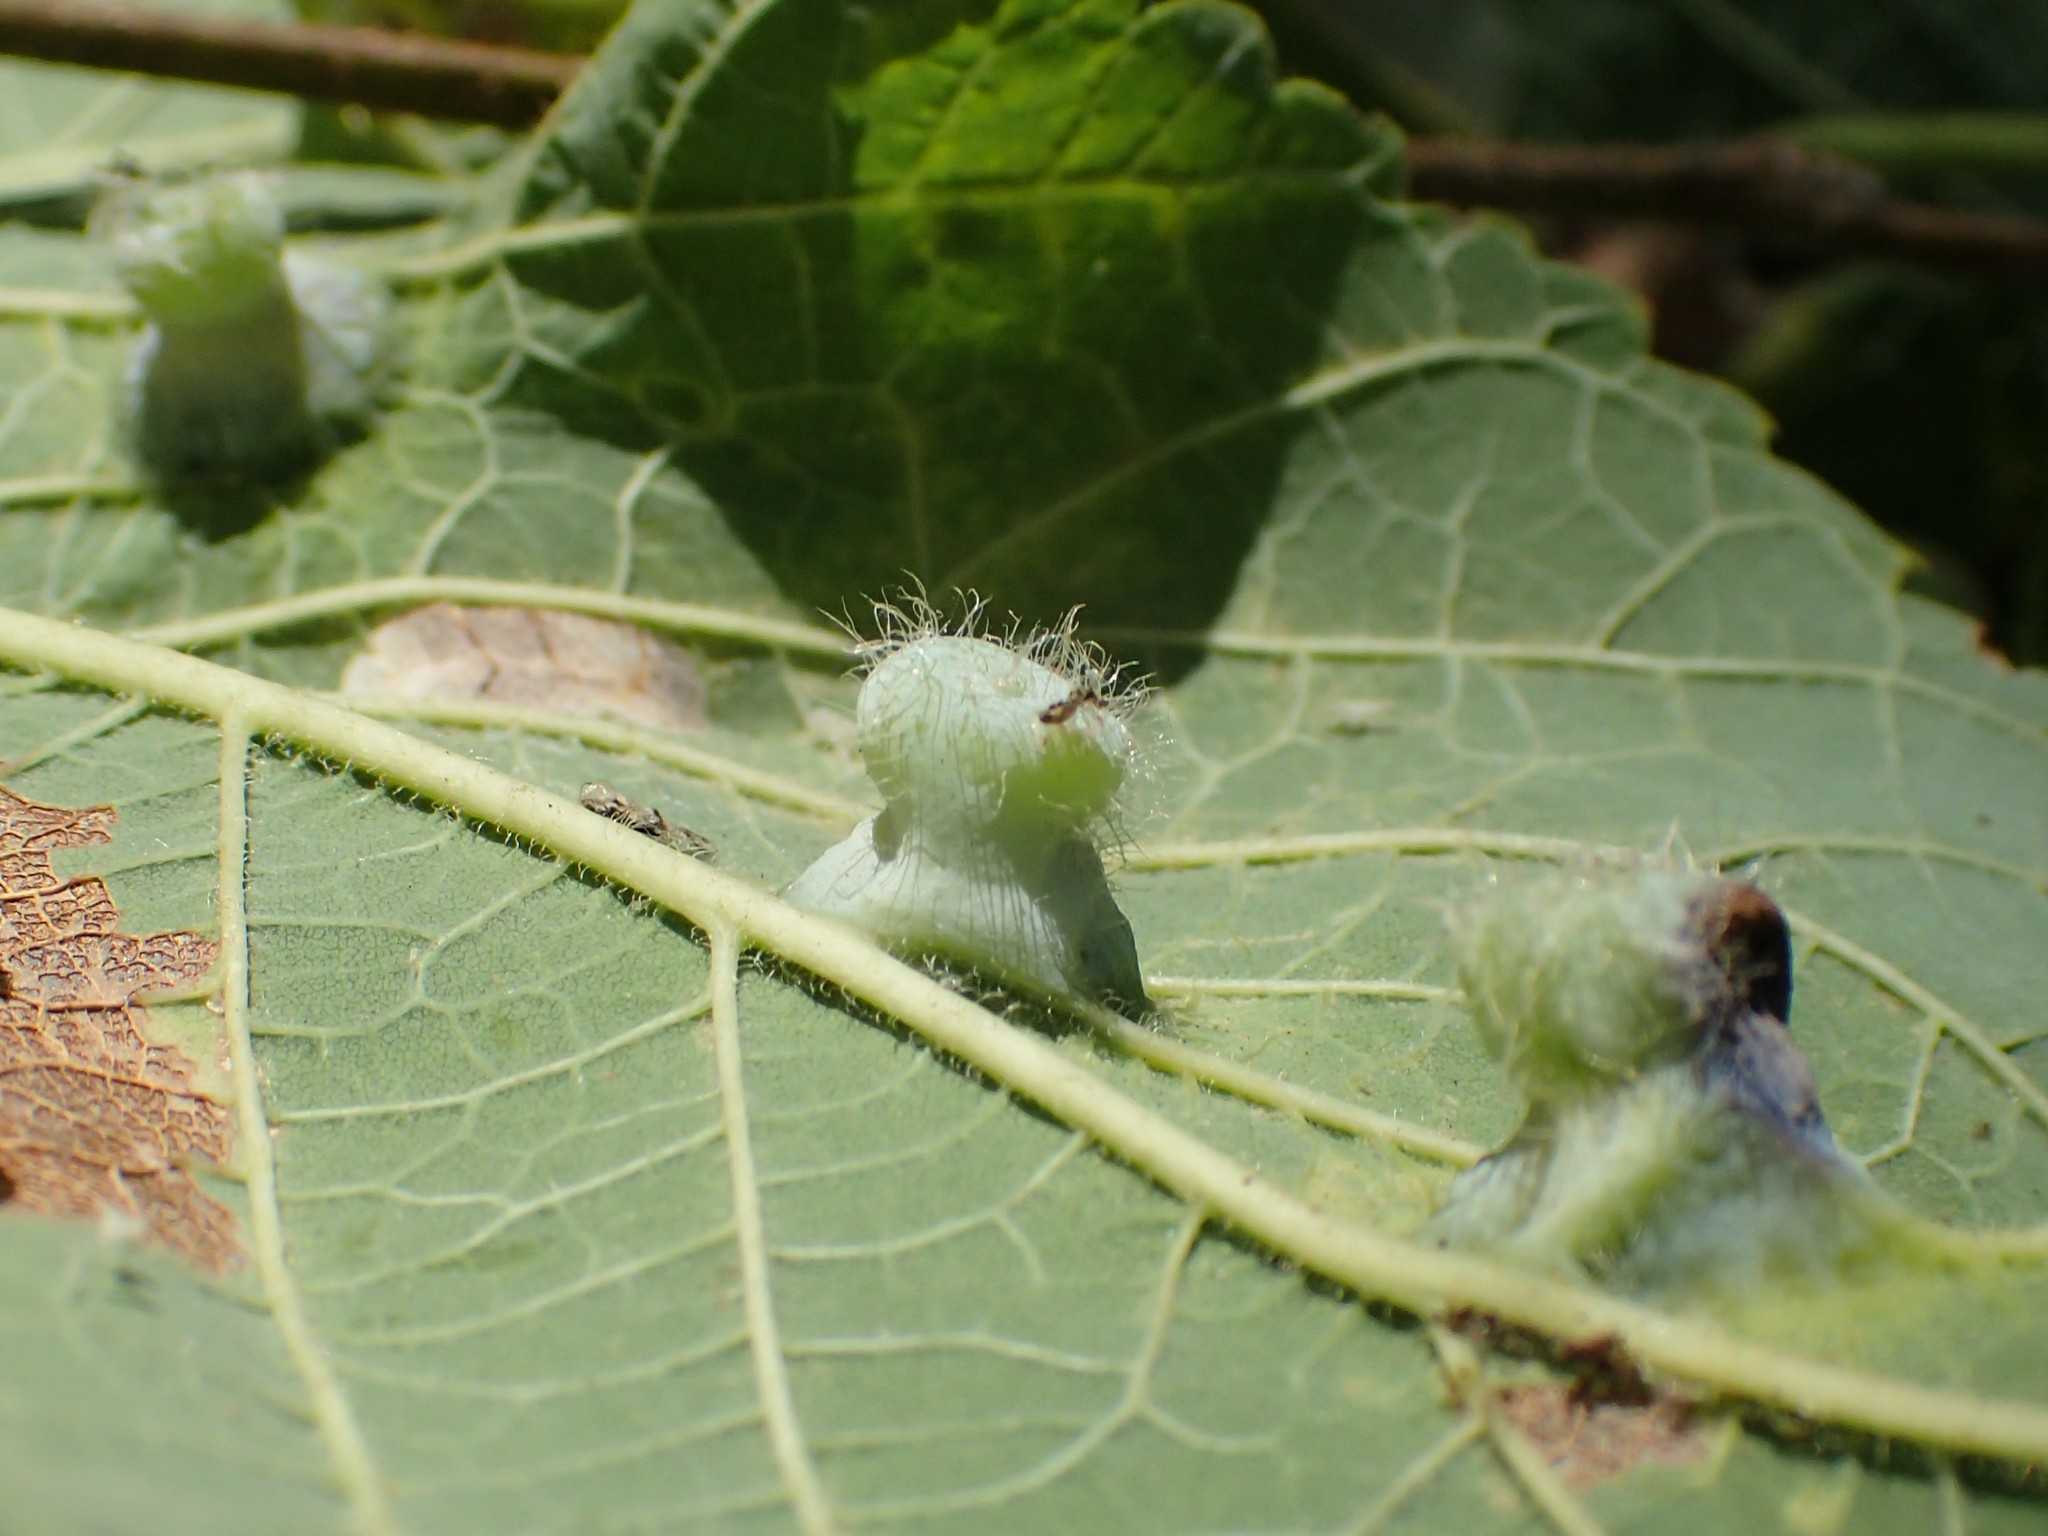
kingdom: Animalia
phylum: Arthropoda
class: Insecta
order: Hemiptera
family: Aphalaridae
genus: Pachypsylla
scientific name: Pachypsylla celtidismamma
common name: Hackberry nipplegall psyllid
